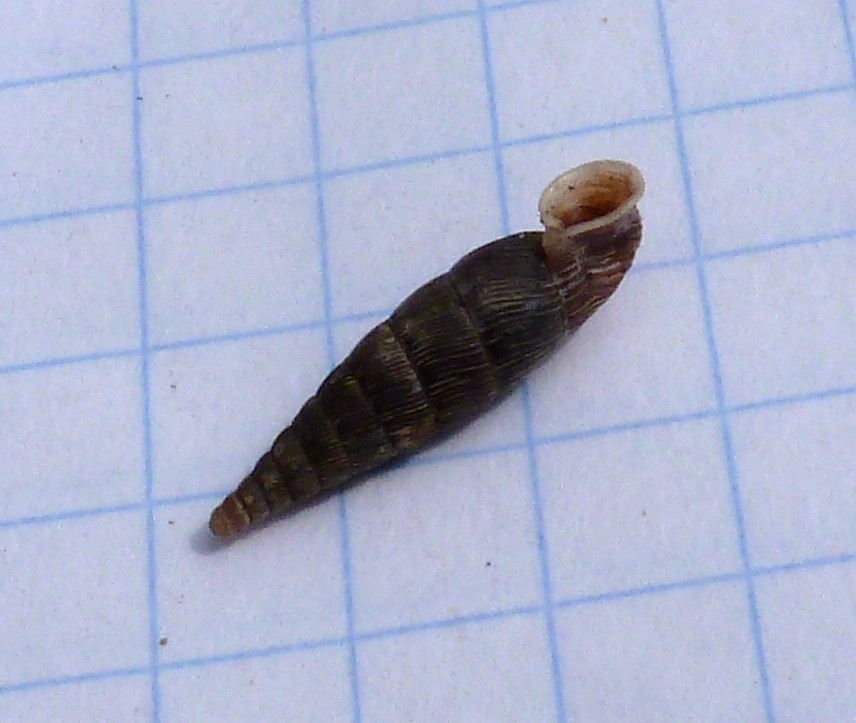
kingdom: Animalia
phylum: Mollusca
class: Gastropoda
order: Stylommatophora
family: Clausiliidae
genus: Scrobifera
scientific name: Scrobifera taurica
